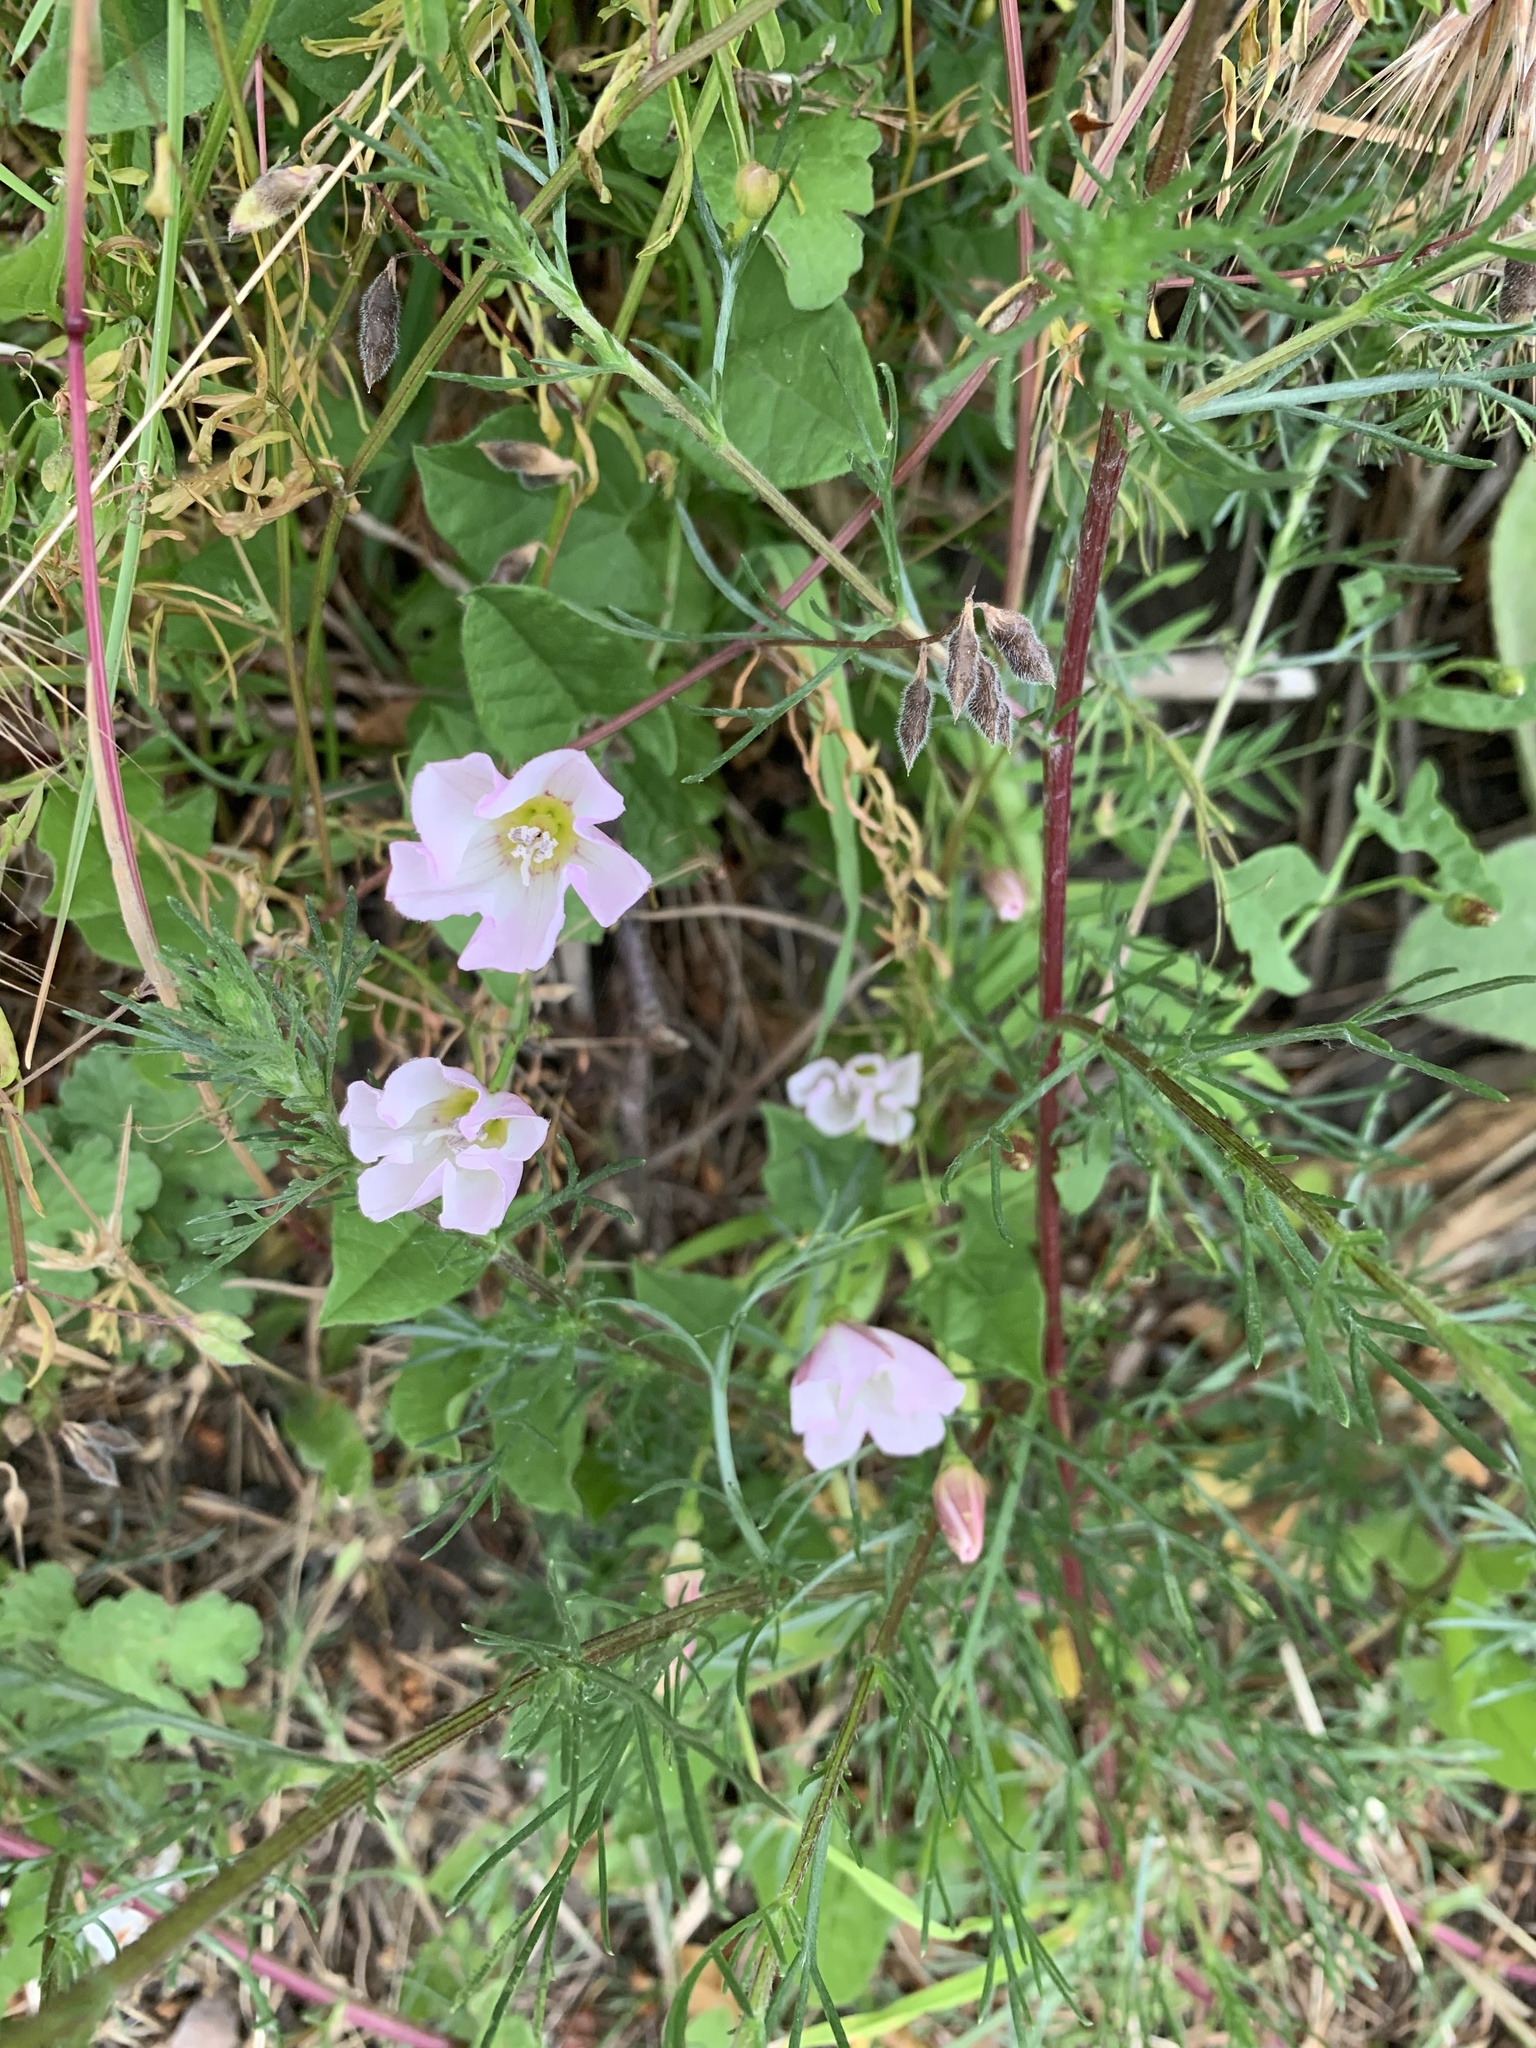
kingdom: Plantae
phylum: Tracheophyta
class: Magnoliopsida
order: Solanales
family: Convolvulaceae
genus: Convolvulus
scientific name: Convolvulus arvensis
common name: Field bindweed
